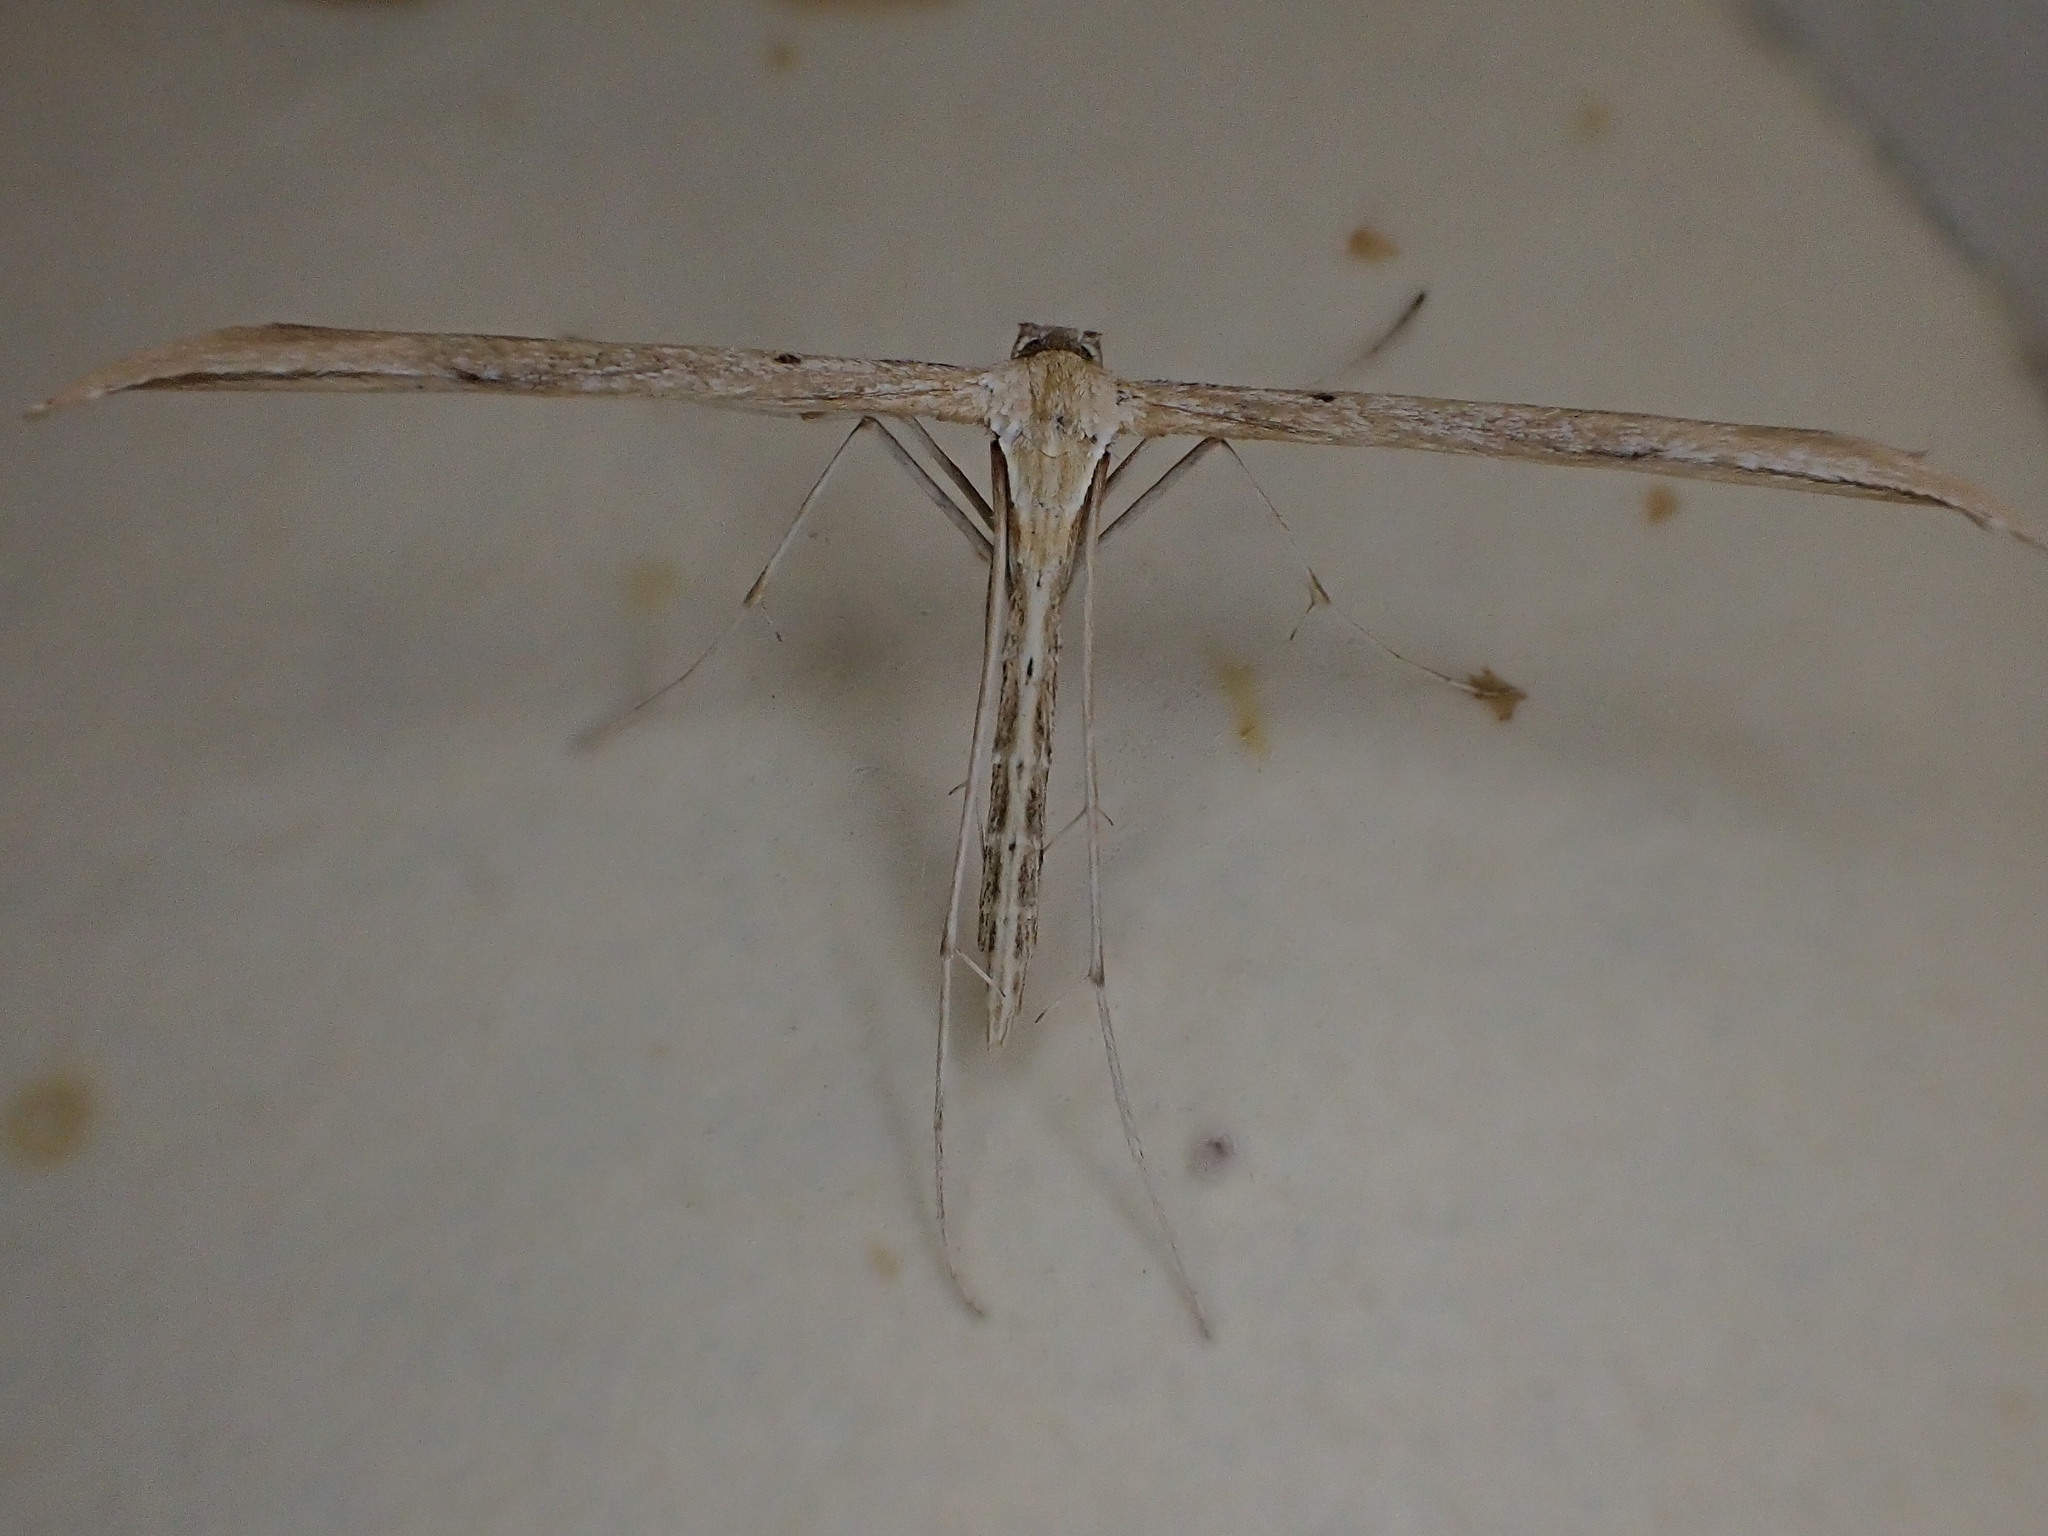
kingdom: Animalia
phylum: Arthropoda
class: Insecta
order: Lepidoptera
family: Pterophoridae
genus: Emmelina
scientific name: Emmelina monodactyla
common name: Common plume
